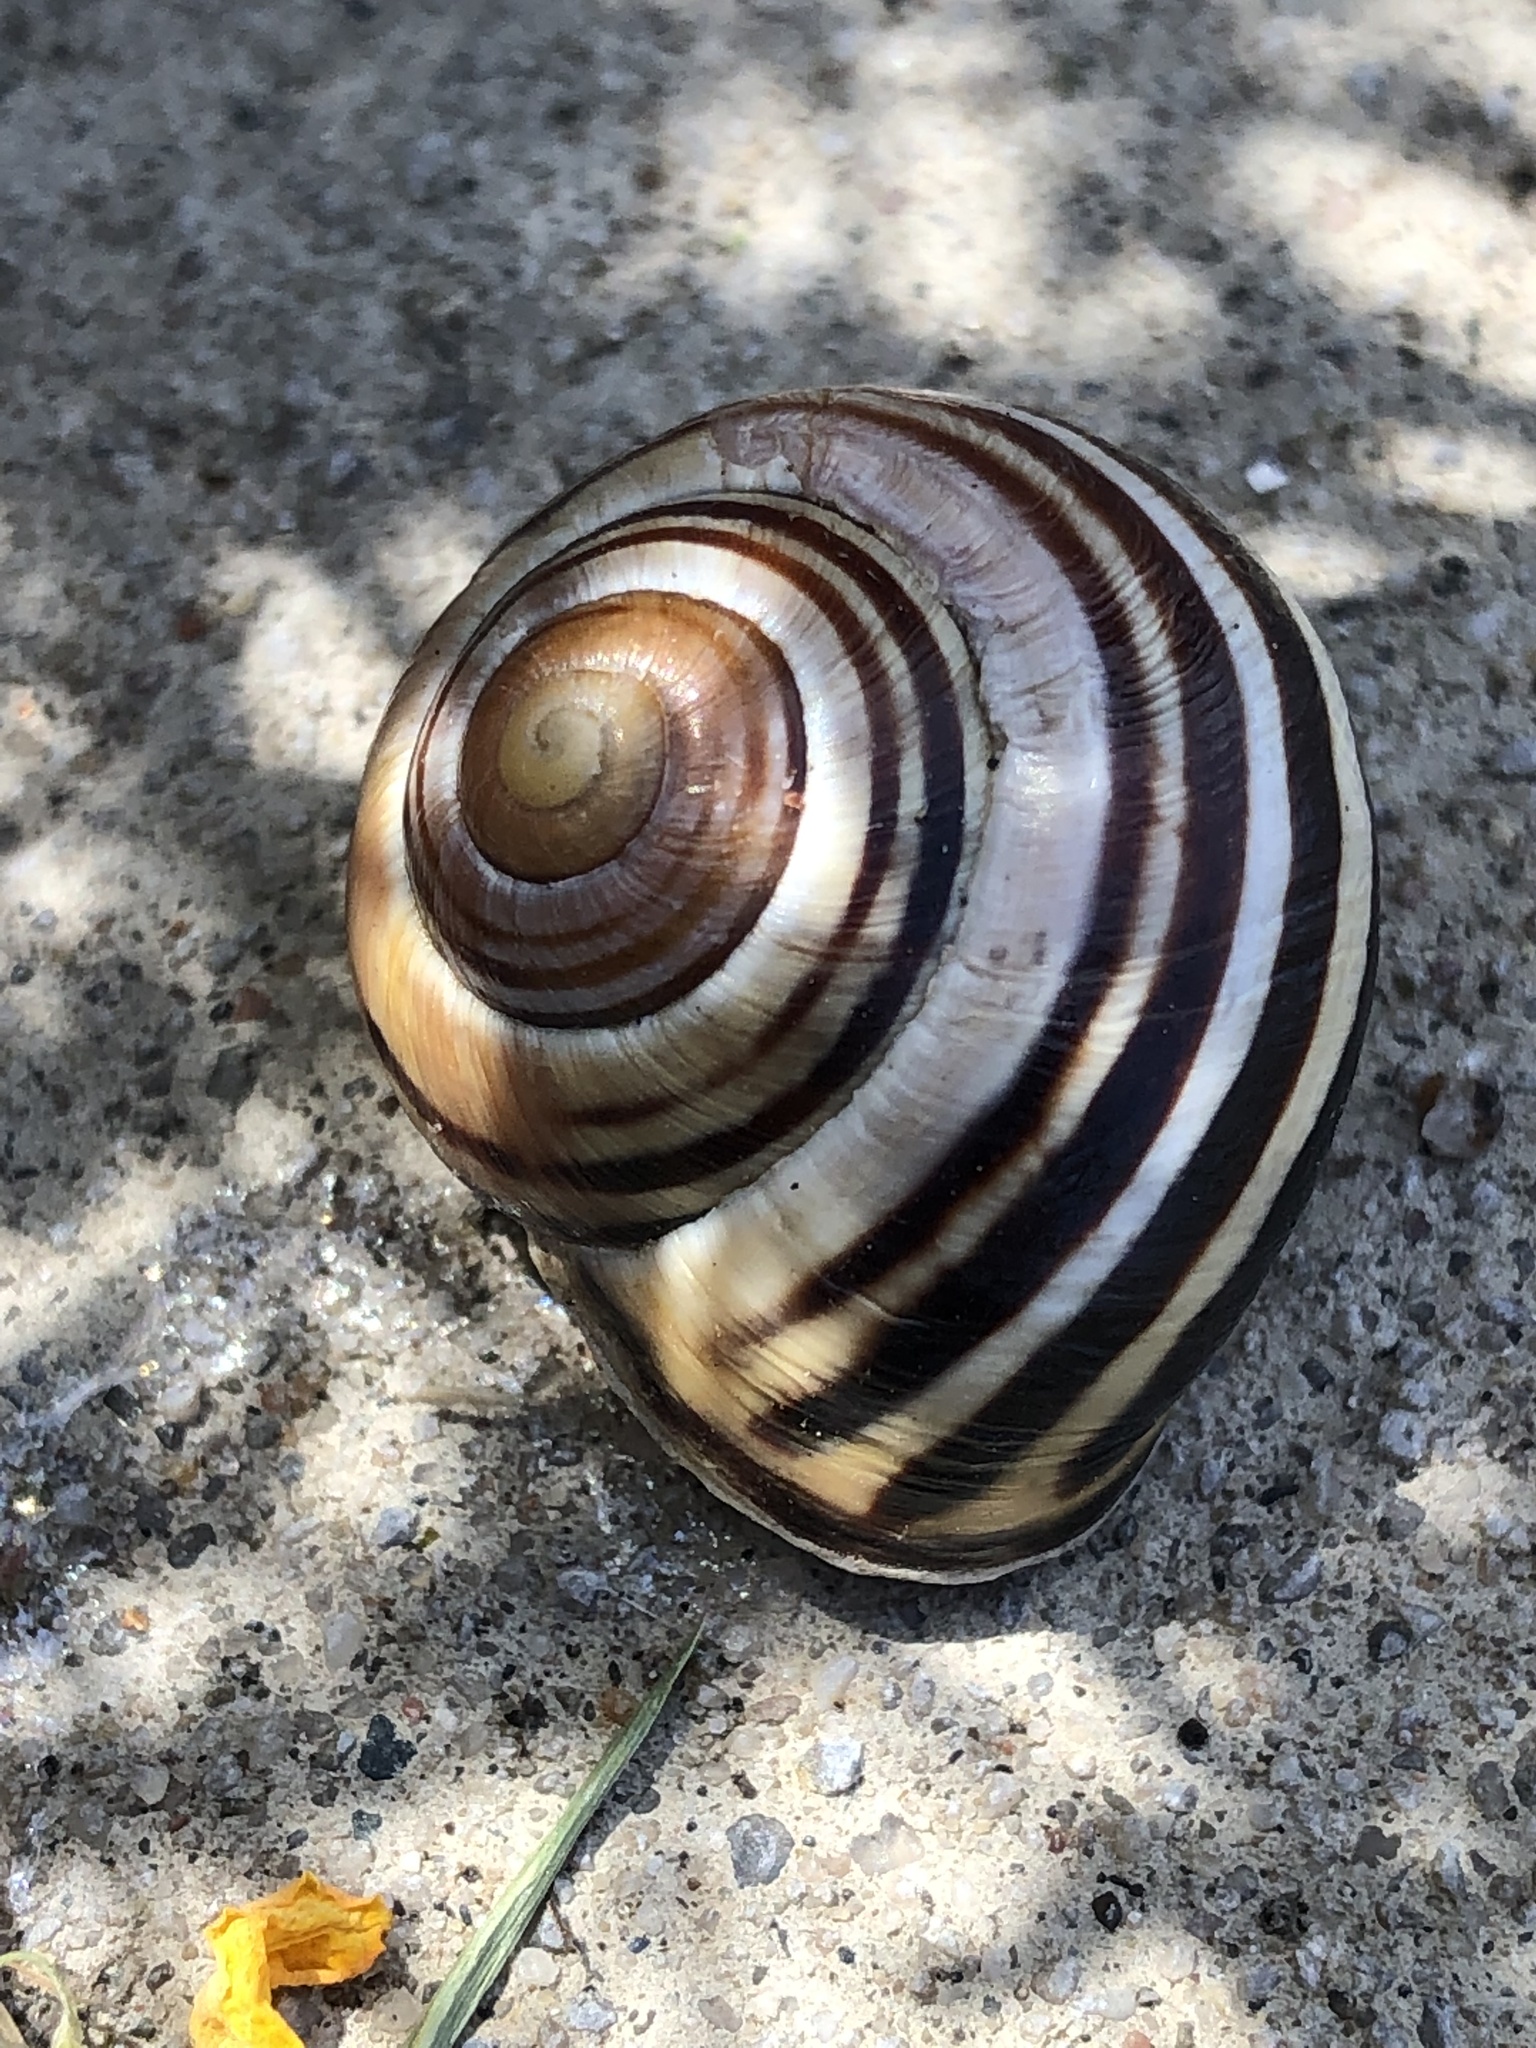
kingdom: Animalia
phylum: Mollusca
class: Gastropoda
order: Stylommatophora
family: Helicidae
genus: Cepaea
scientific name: Cepaea nemoralis
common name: Grovesnail
